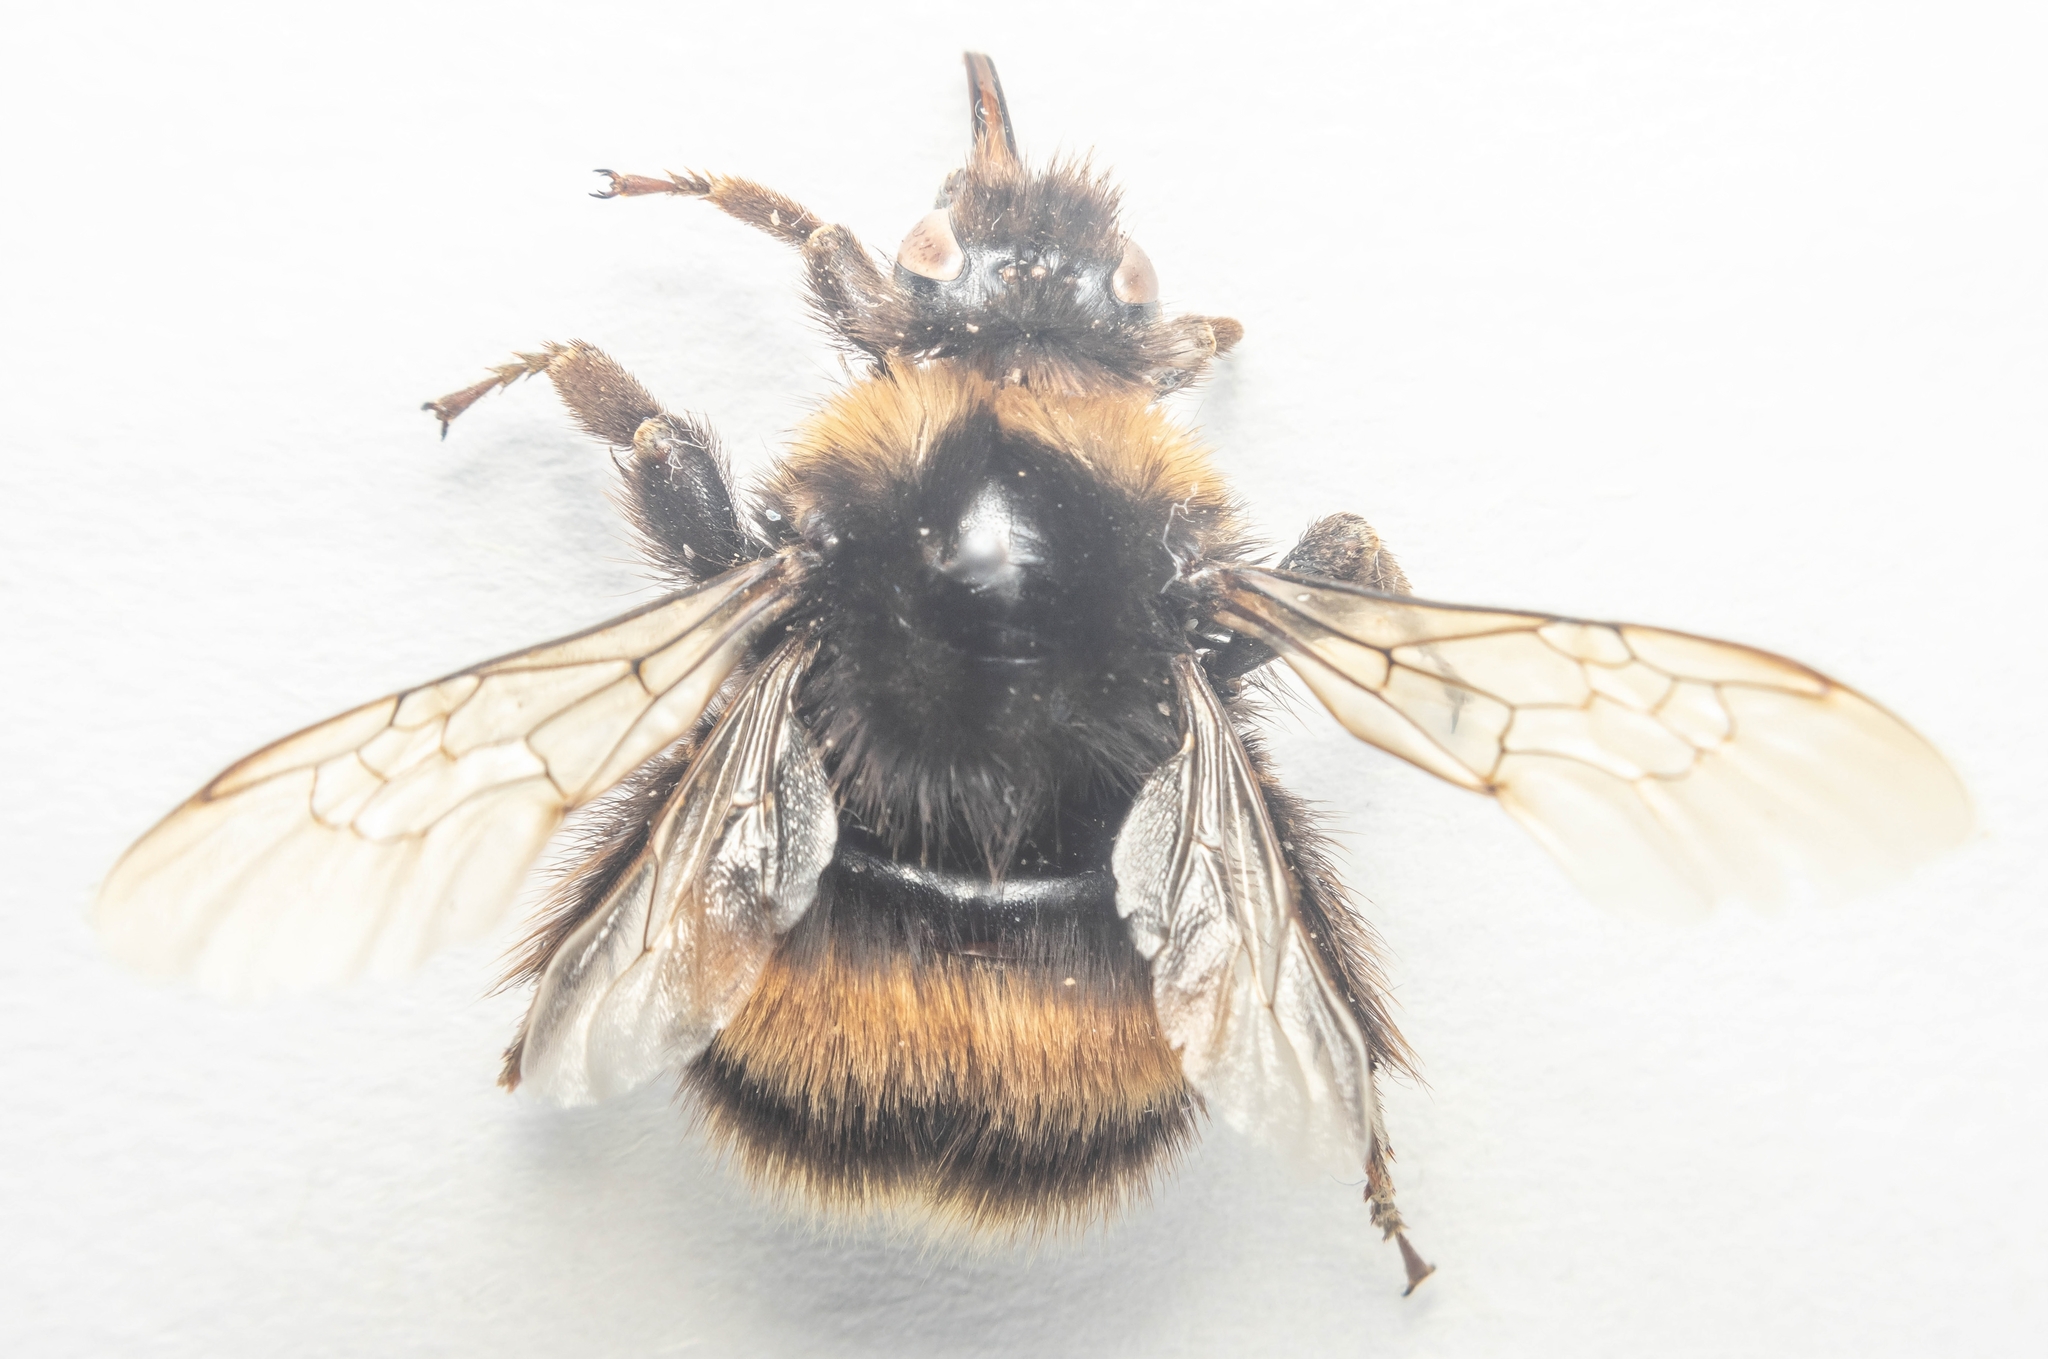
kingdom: Animalia
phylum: Arthropoda
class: Insecta
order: Hymenoptera
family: Apidae
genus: Bombus
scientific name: Bombus terrestris
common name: Buff-tailed bumblebee
